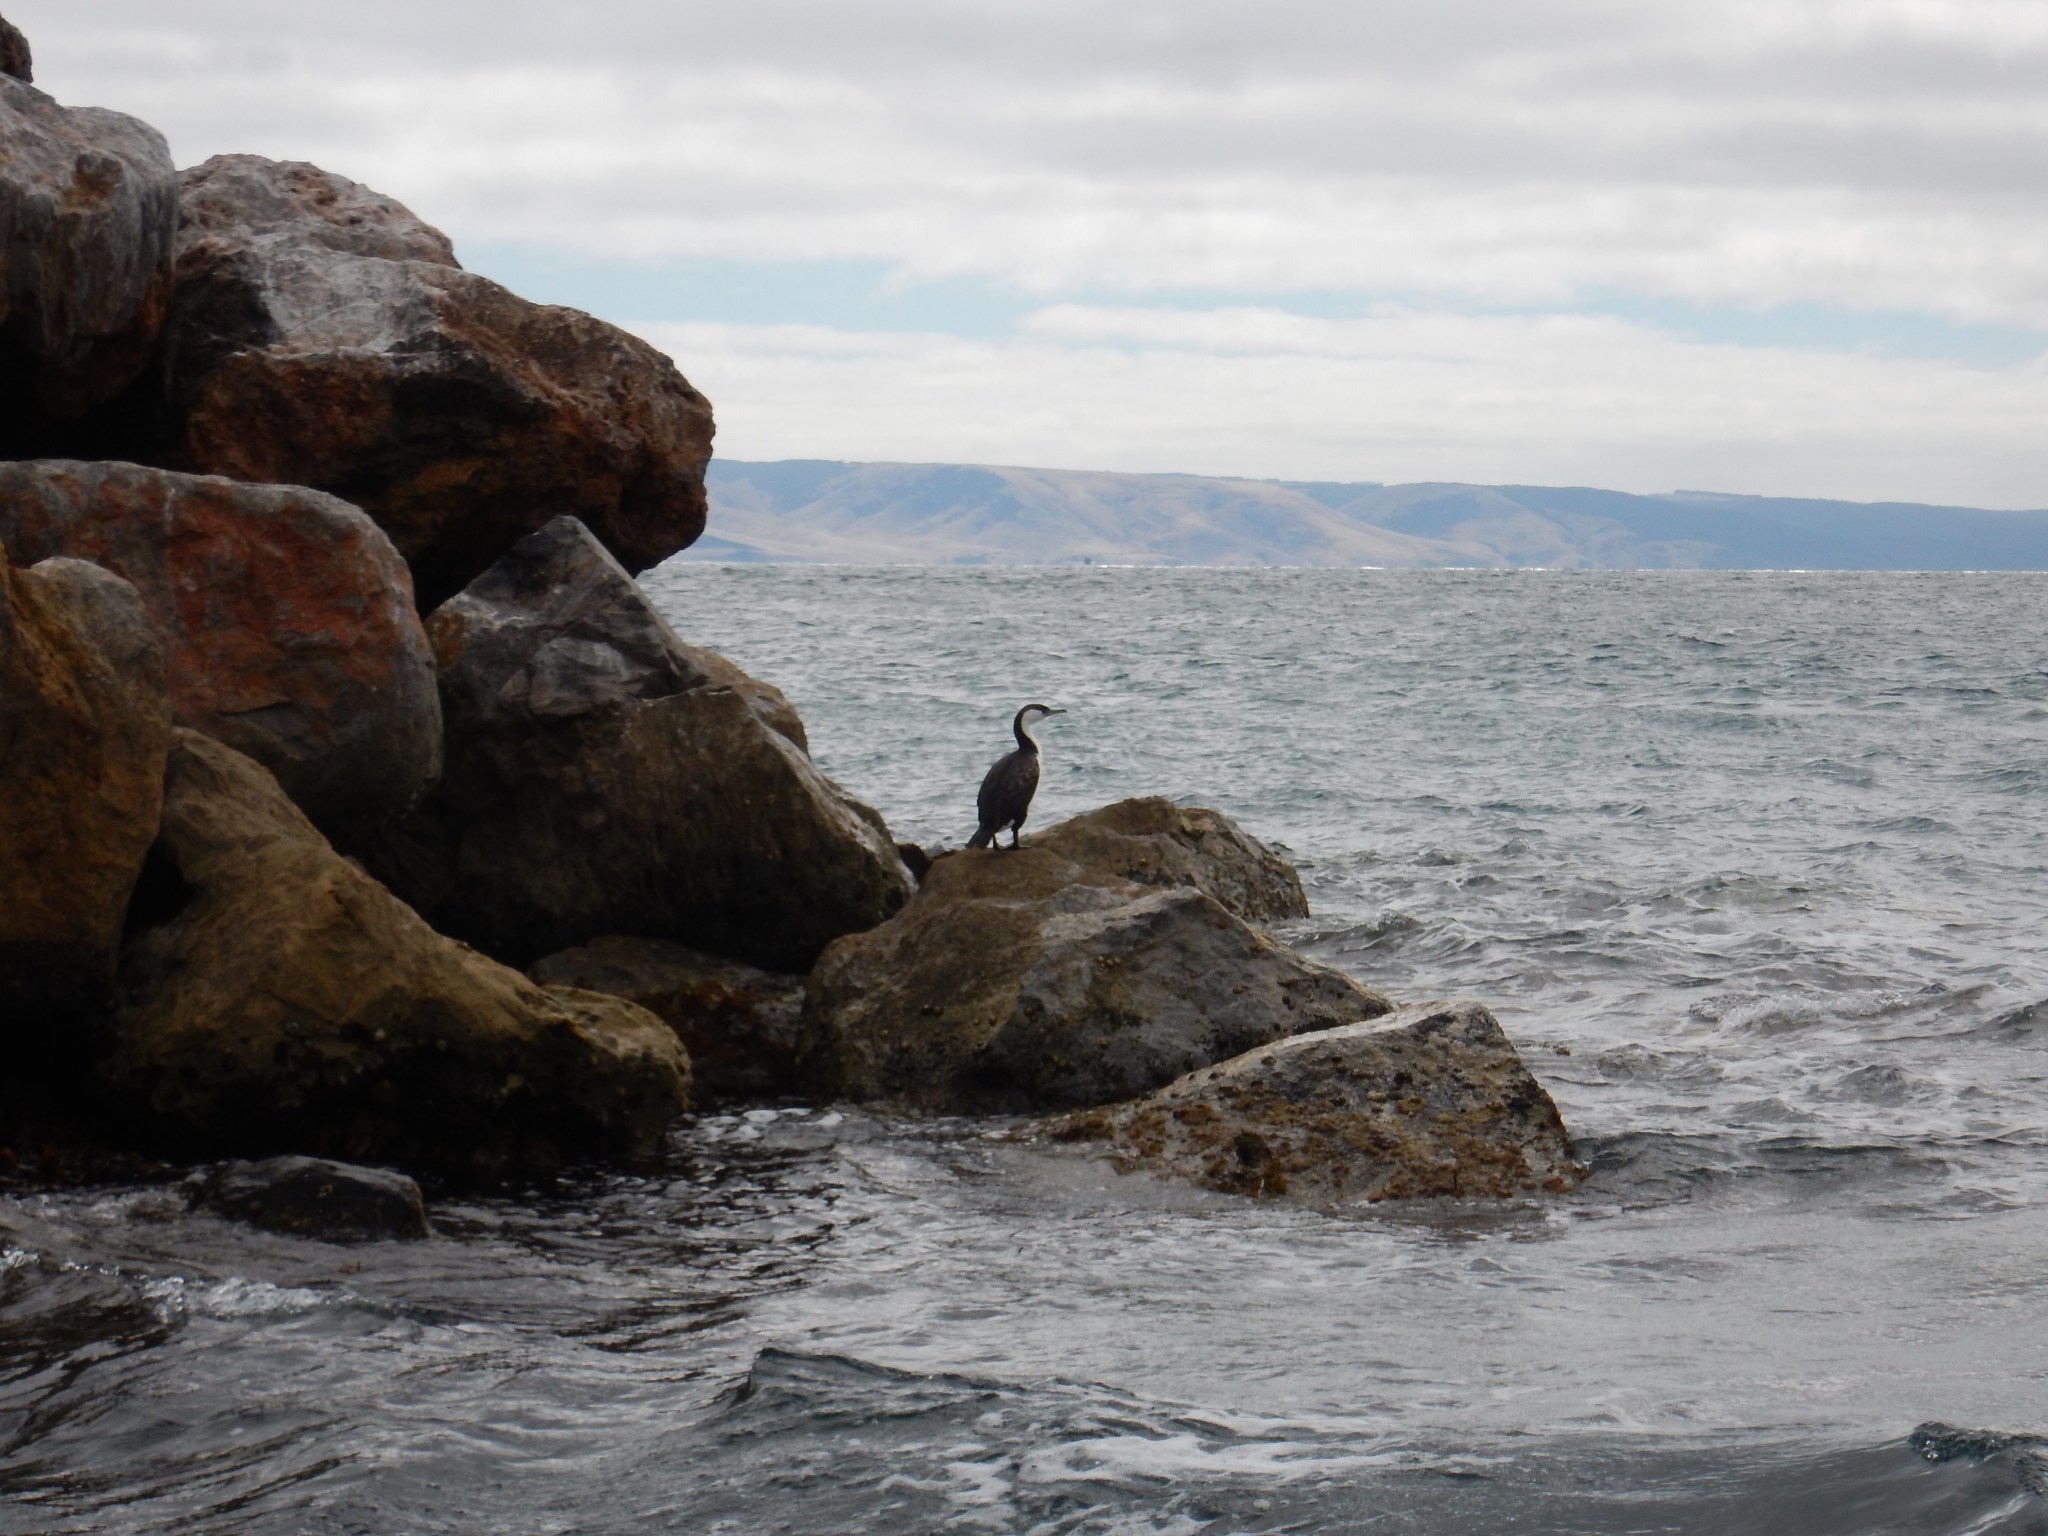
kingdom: Animalia
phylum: Chordata
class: Aves
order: Suliformes
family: Phalacrocoracidae
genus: Phalacrocorax
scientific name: Phalacrocorax varius
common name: Pied cormorant
